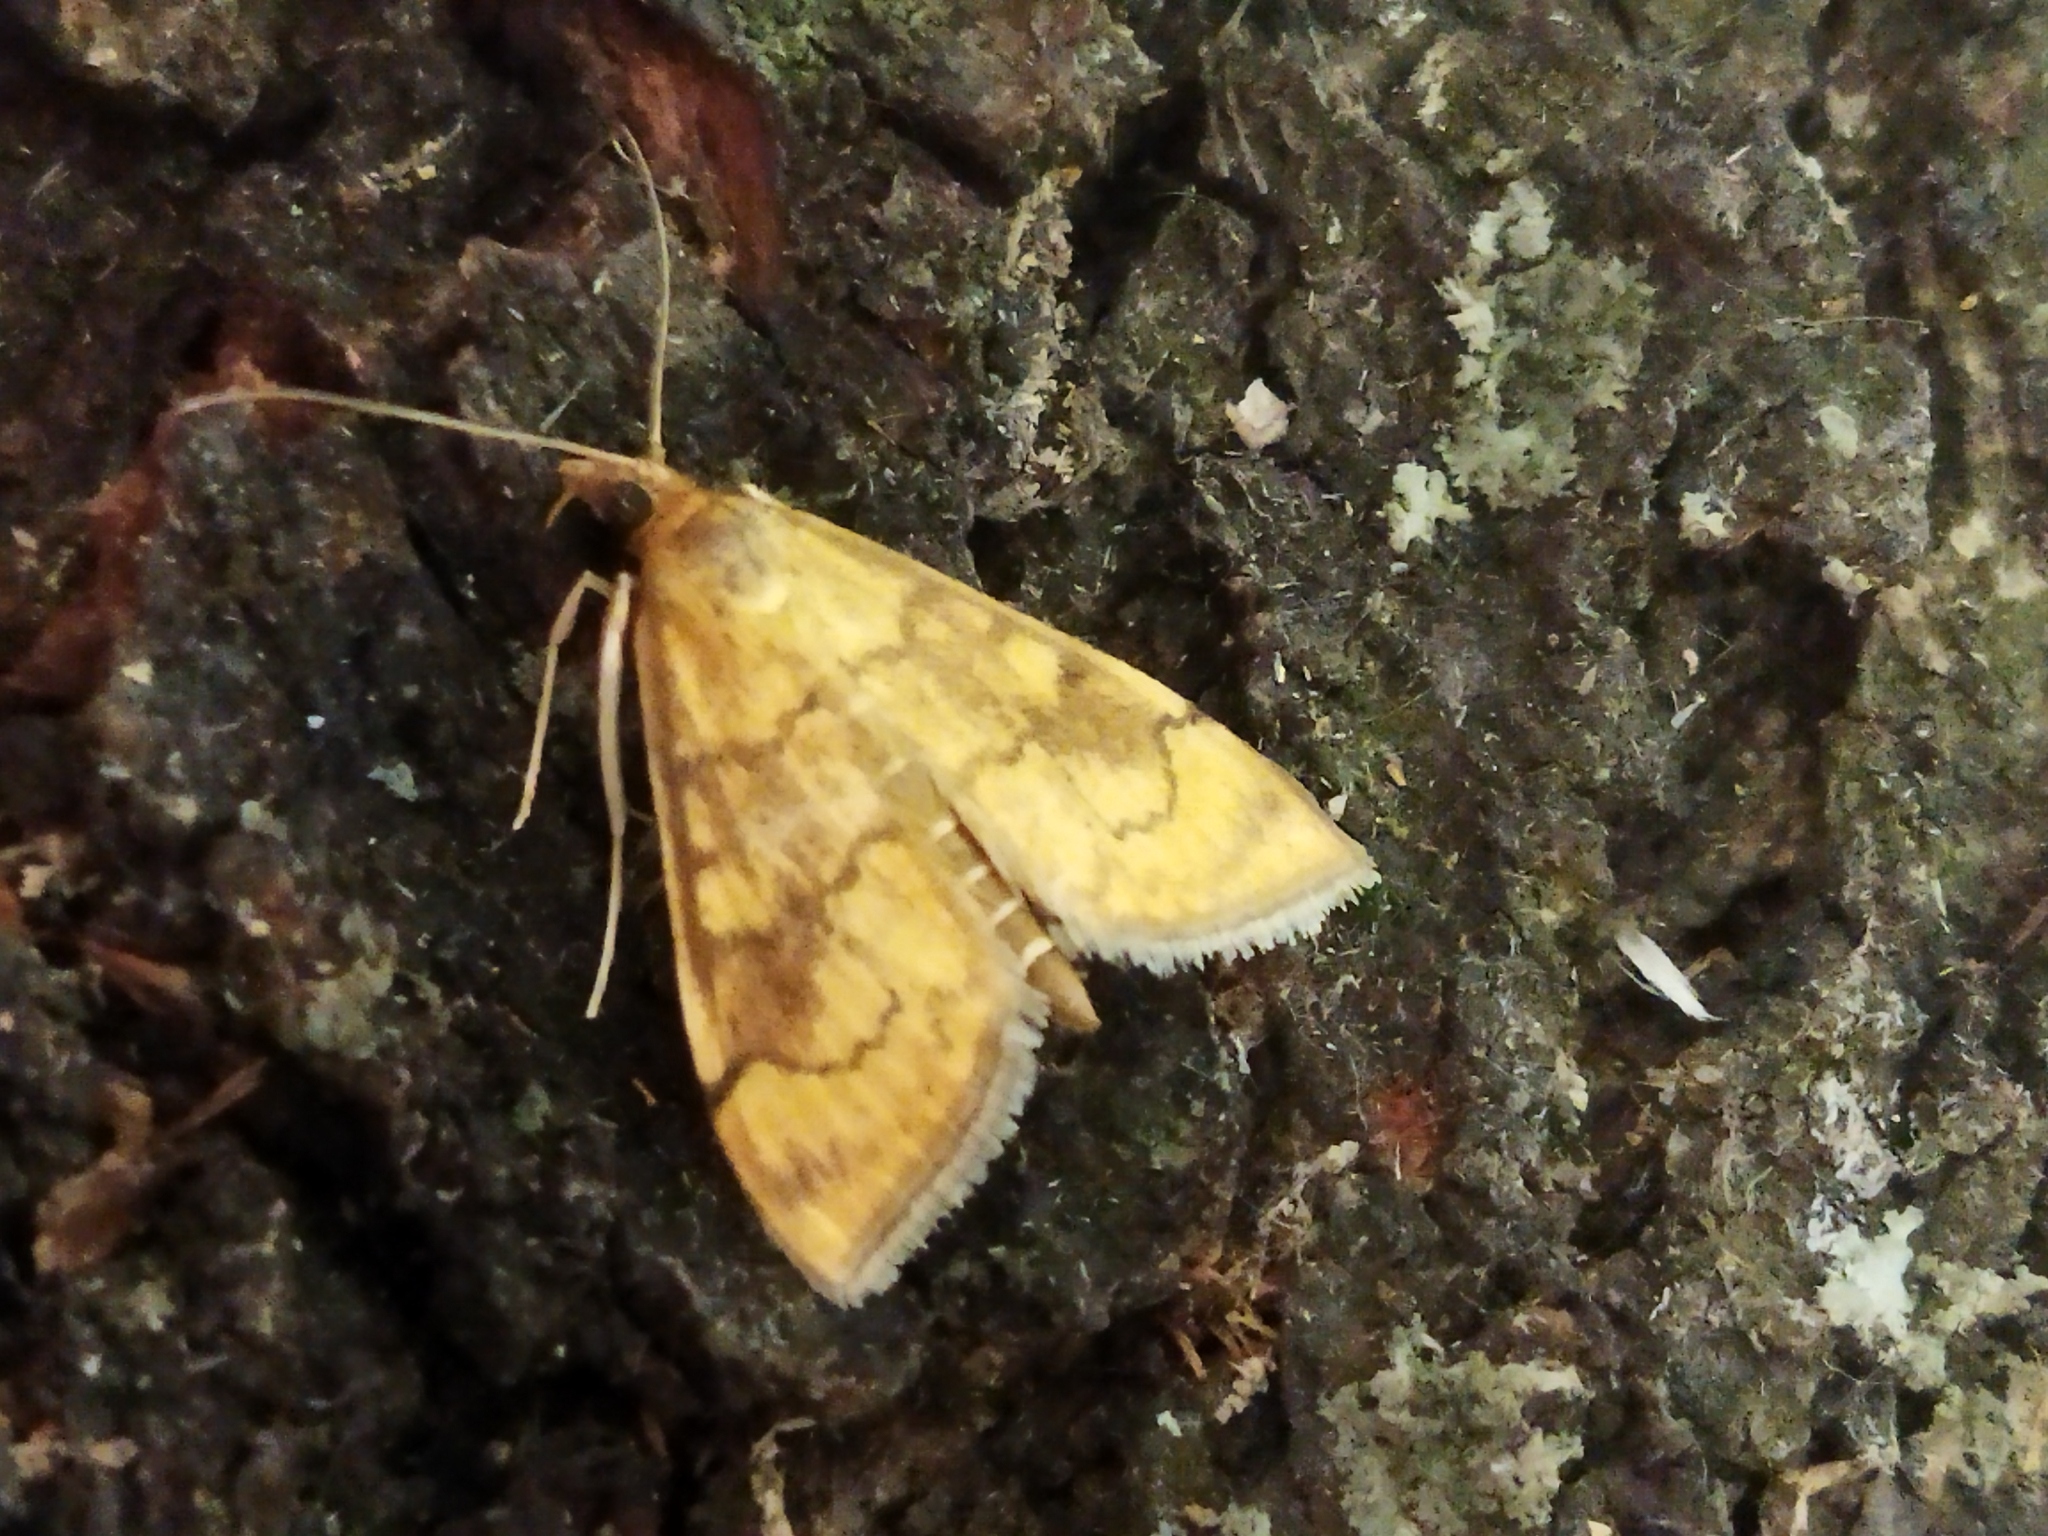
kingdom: Animalia
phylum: Arthropoda
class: Insecta
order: Lepidoptera
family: Crambidae
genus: Anania
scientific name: Anania verbascalis
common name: Golden pearl
